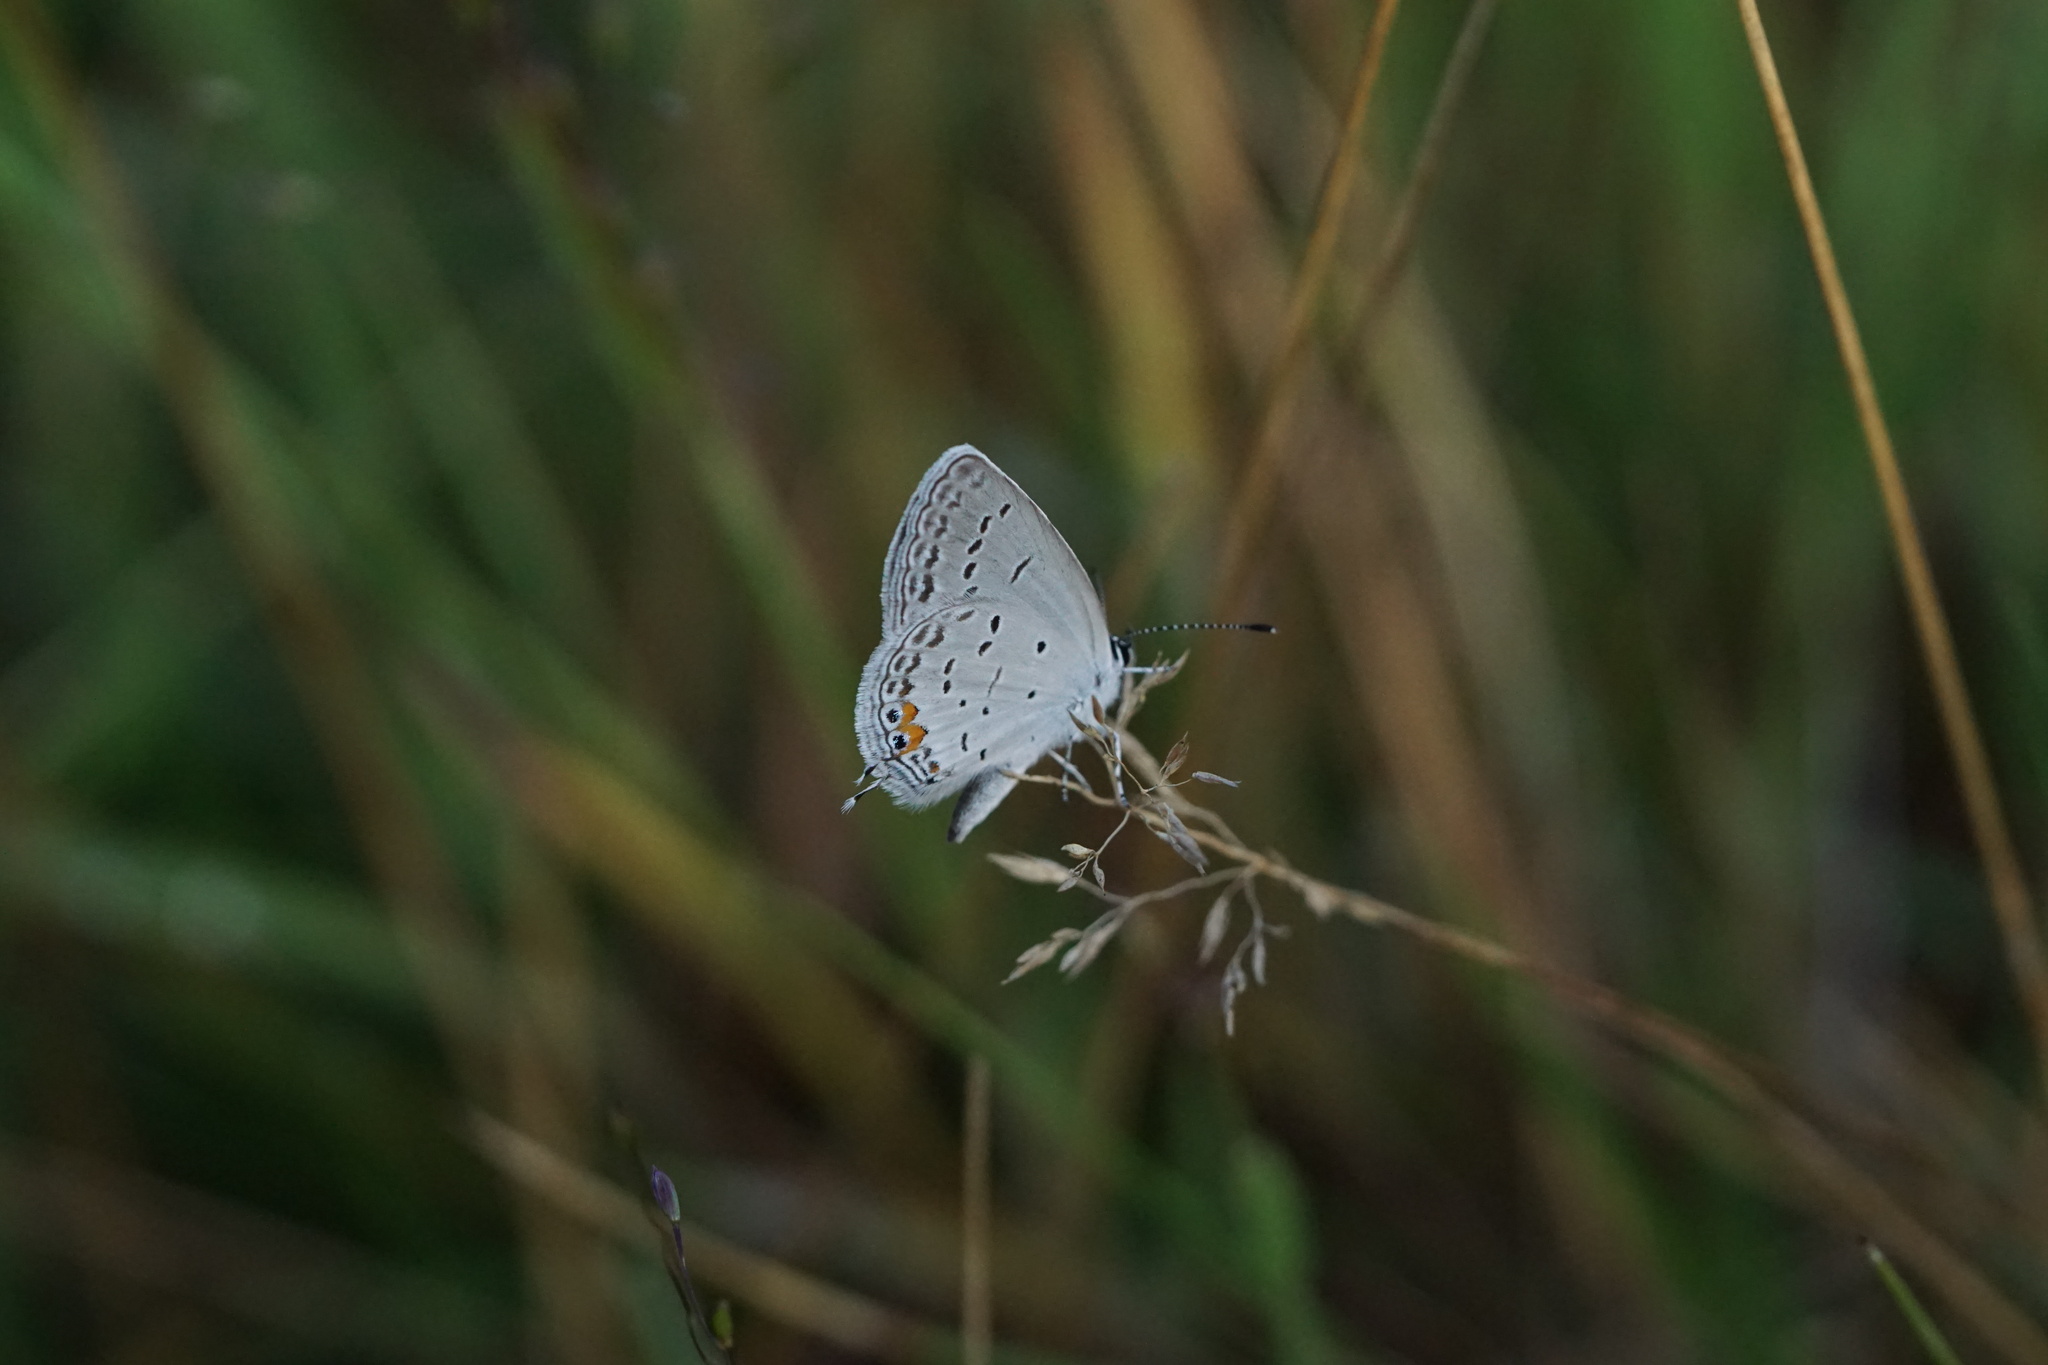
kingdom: Animalia
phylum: Arthropoda
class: Insecta
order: Lepidoptera
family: Lycaenidae
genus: Elkalyce
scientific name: Elkalyce comyntas
